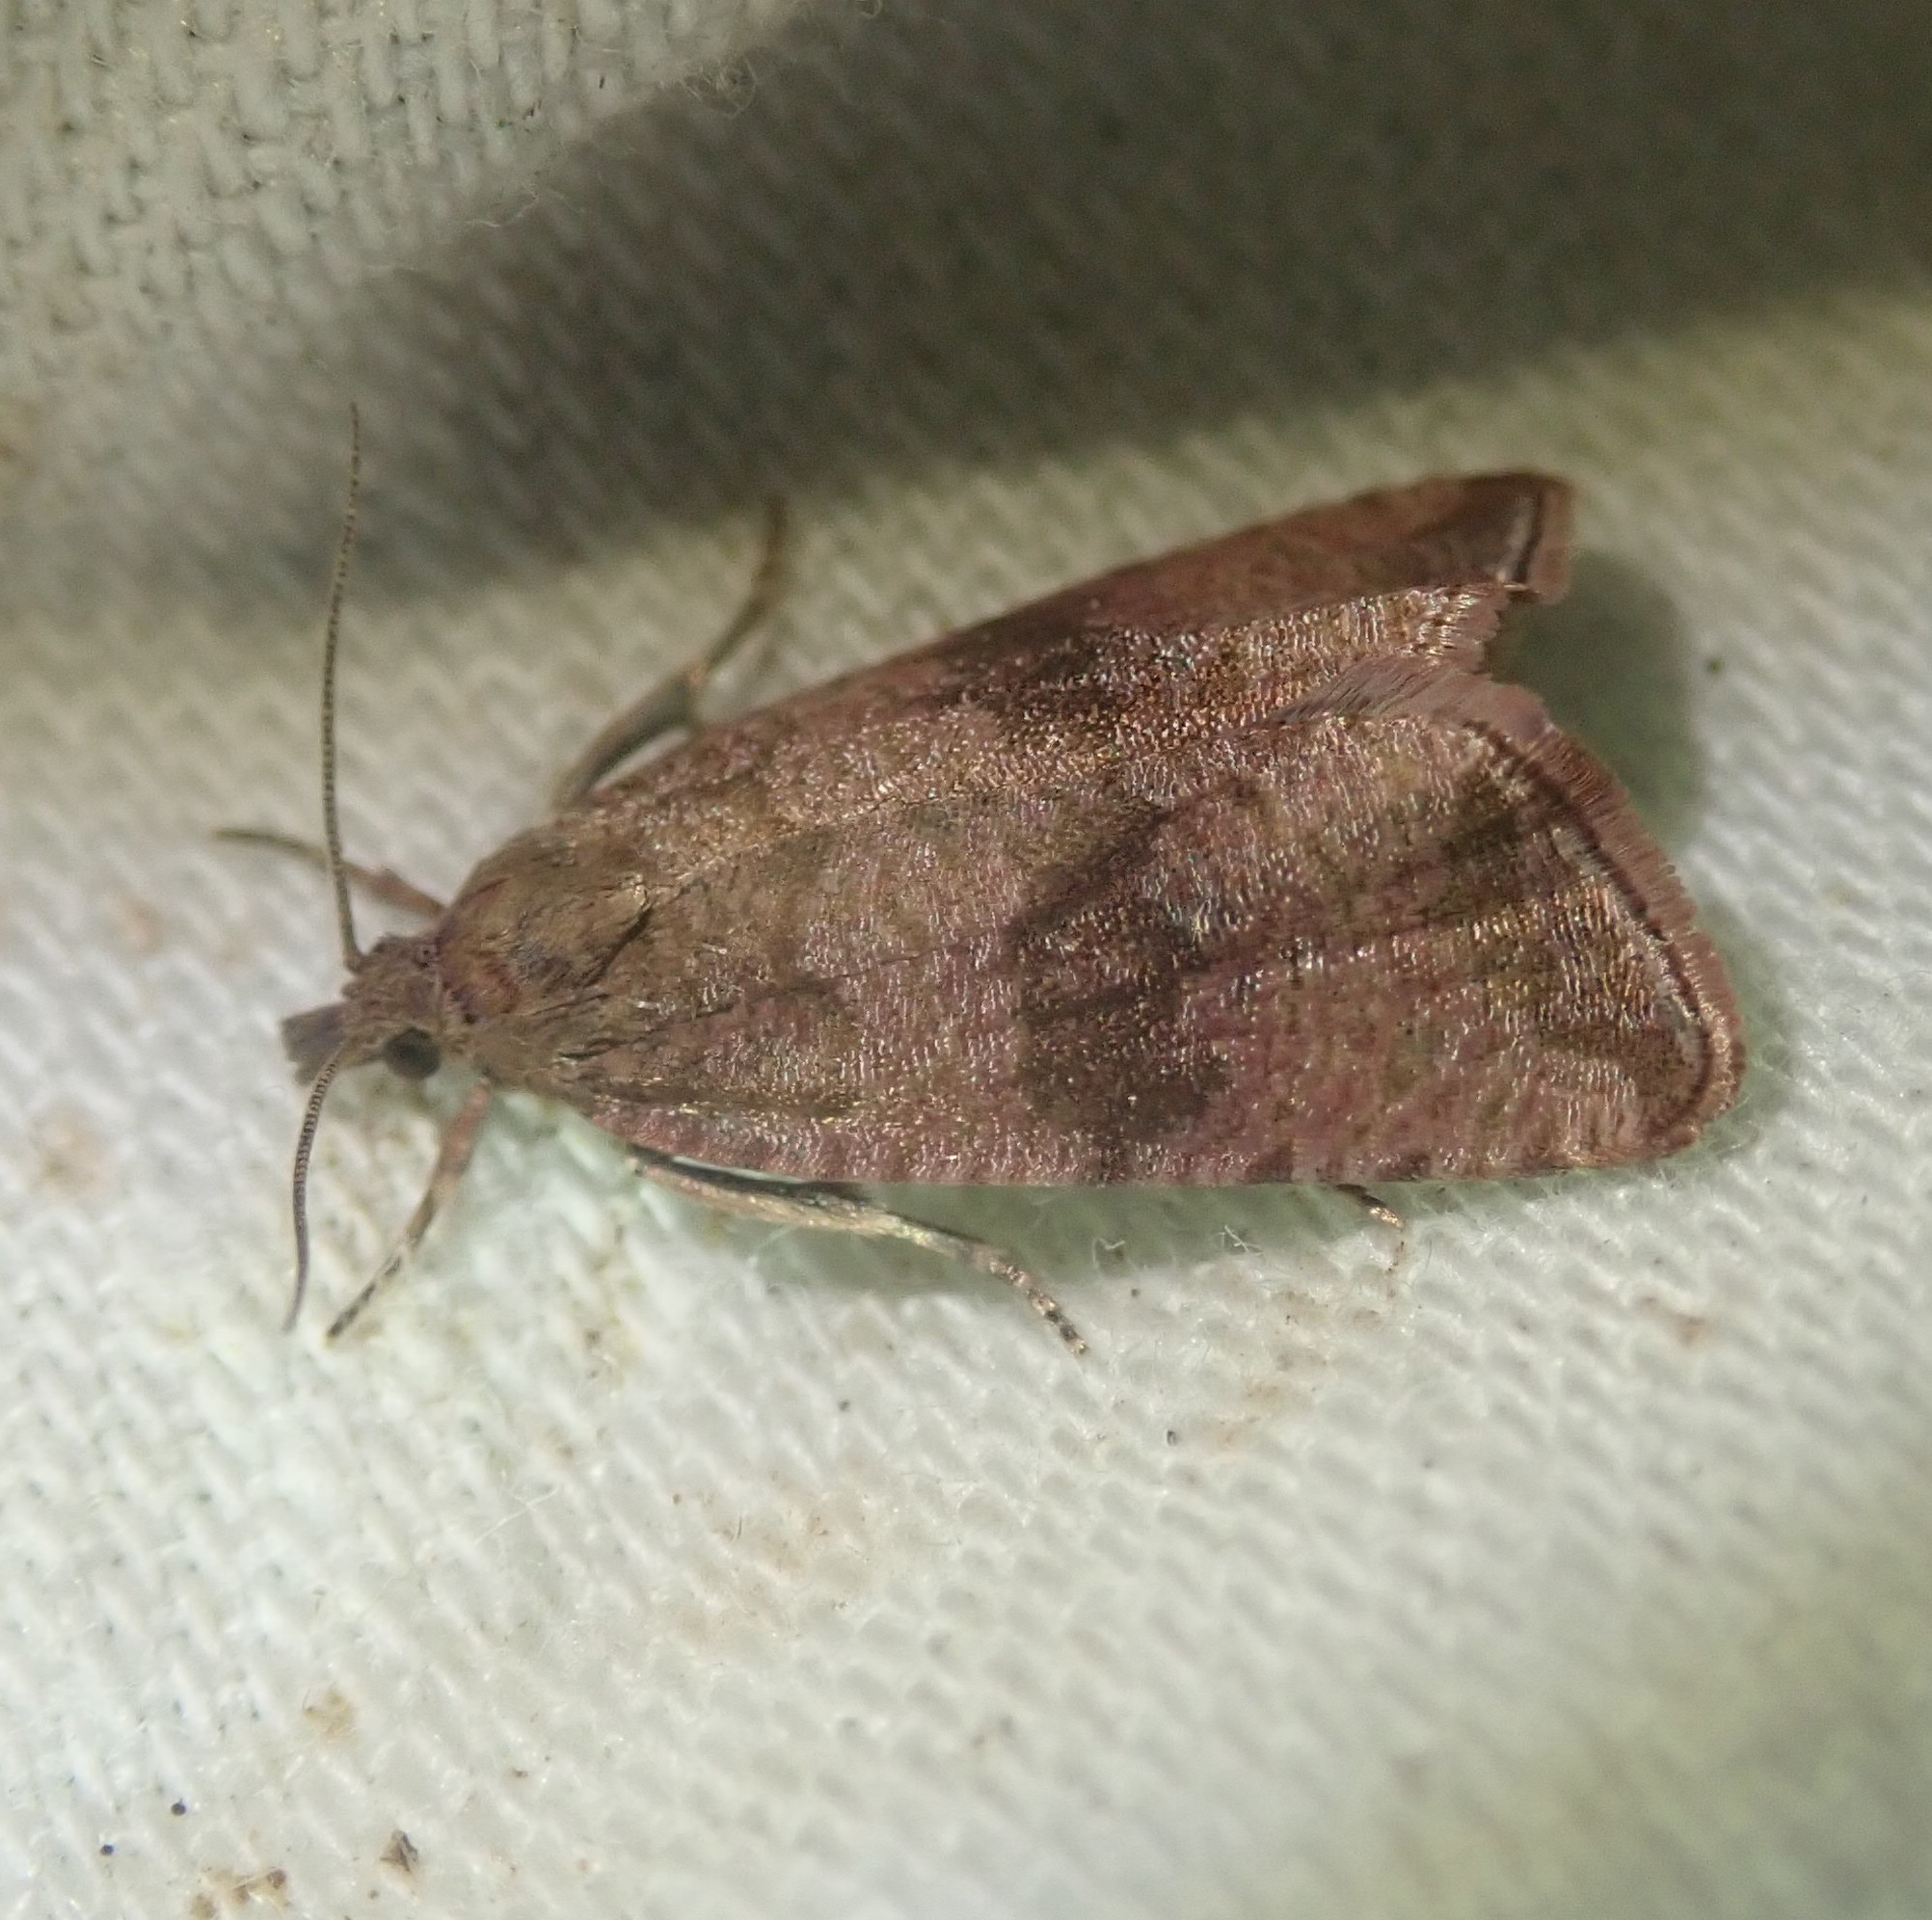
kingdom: Animalia
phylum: Arthropoda
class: Insecta
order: Lepidoptera
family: Tortricidae
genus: Celypha
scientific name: Celypha striana
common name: Barred marble
